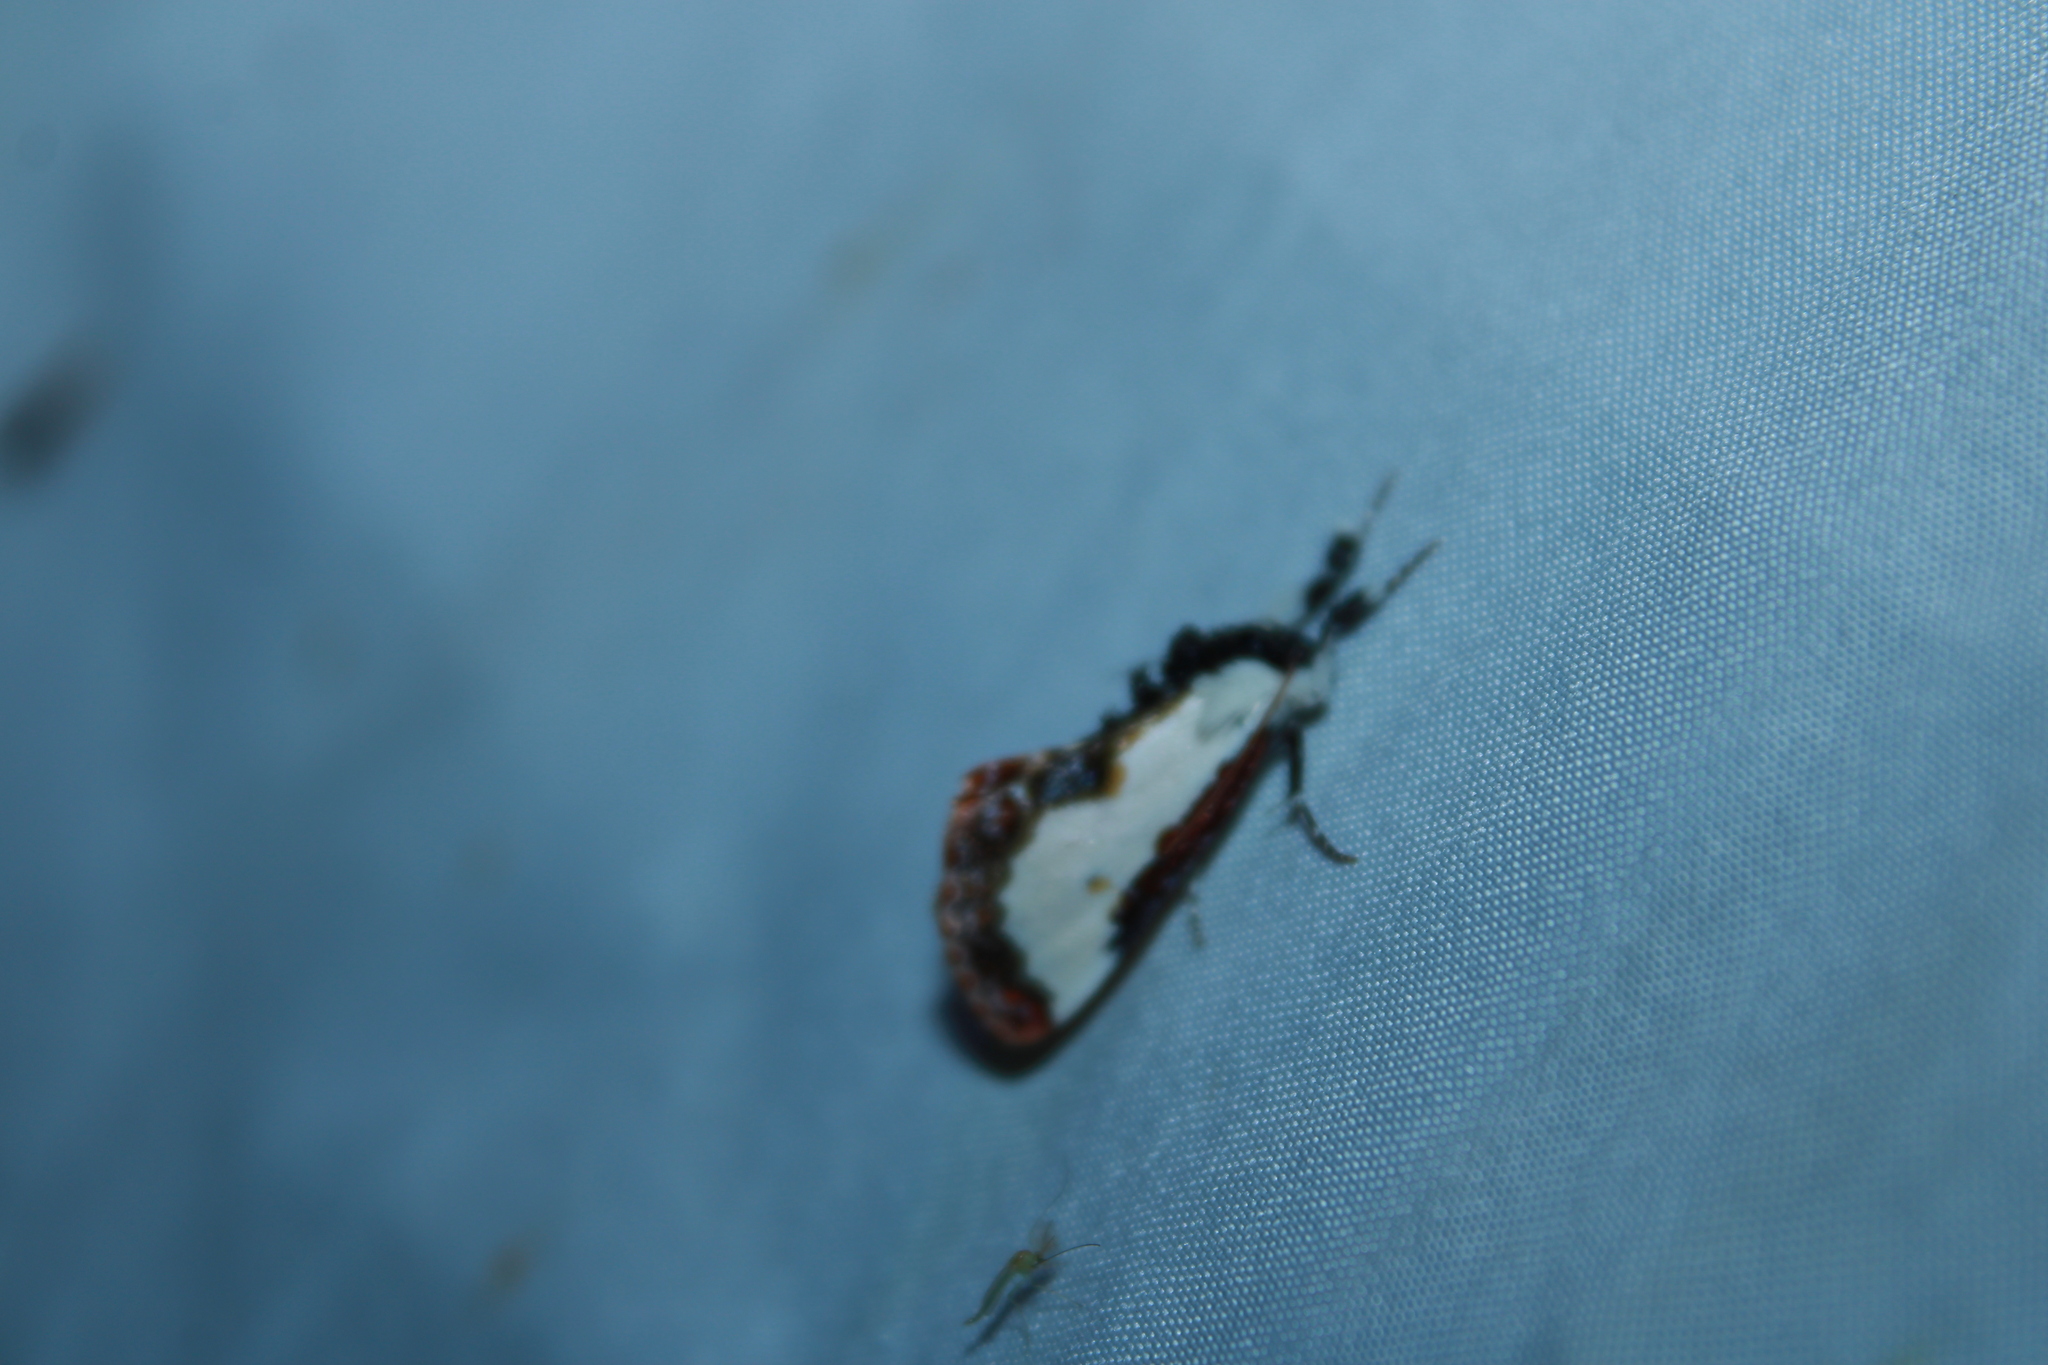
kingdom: Animalia
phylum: Arthropoda
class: Insecta
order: Lepidoptera
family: Noctuidae
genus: Eudryas
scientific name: Eudryas unio
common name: Pearly wood-nymph
